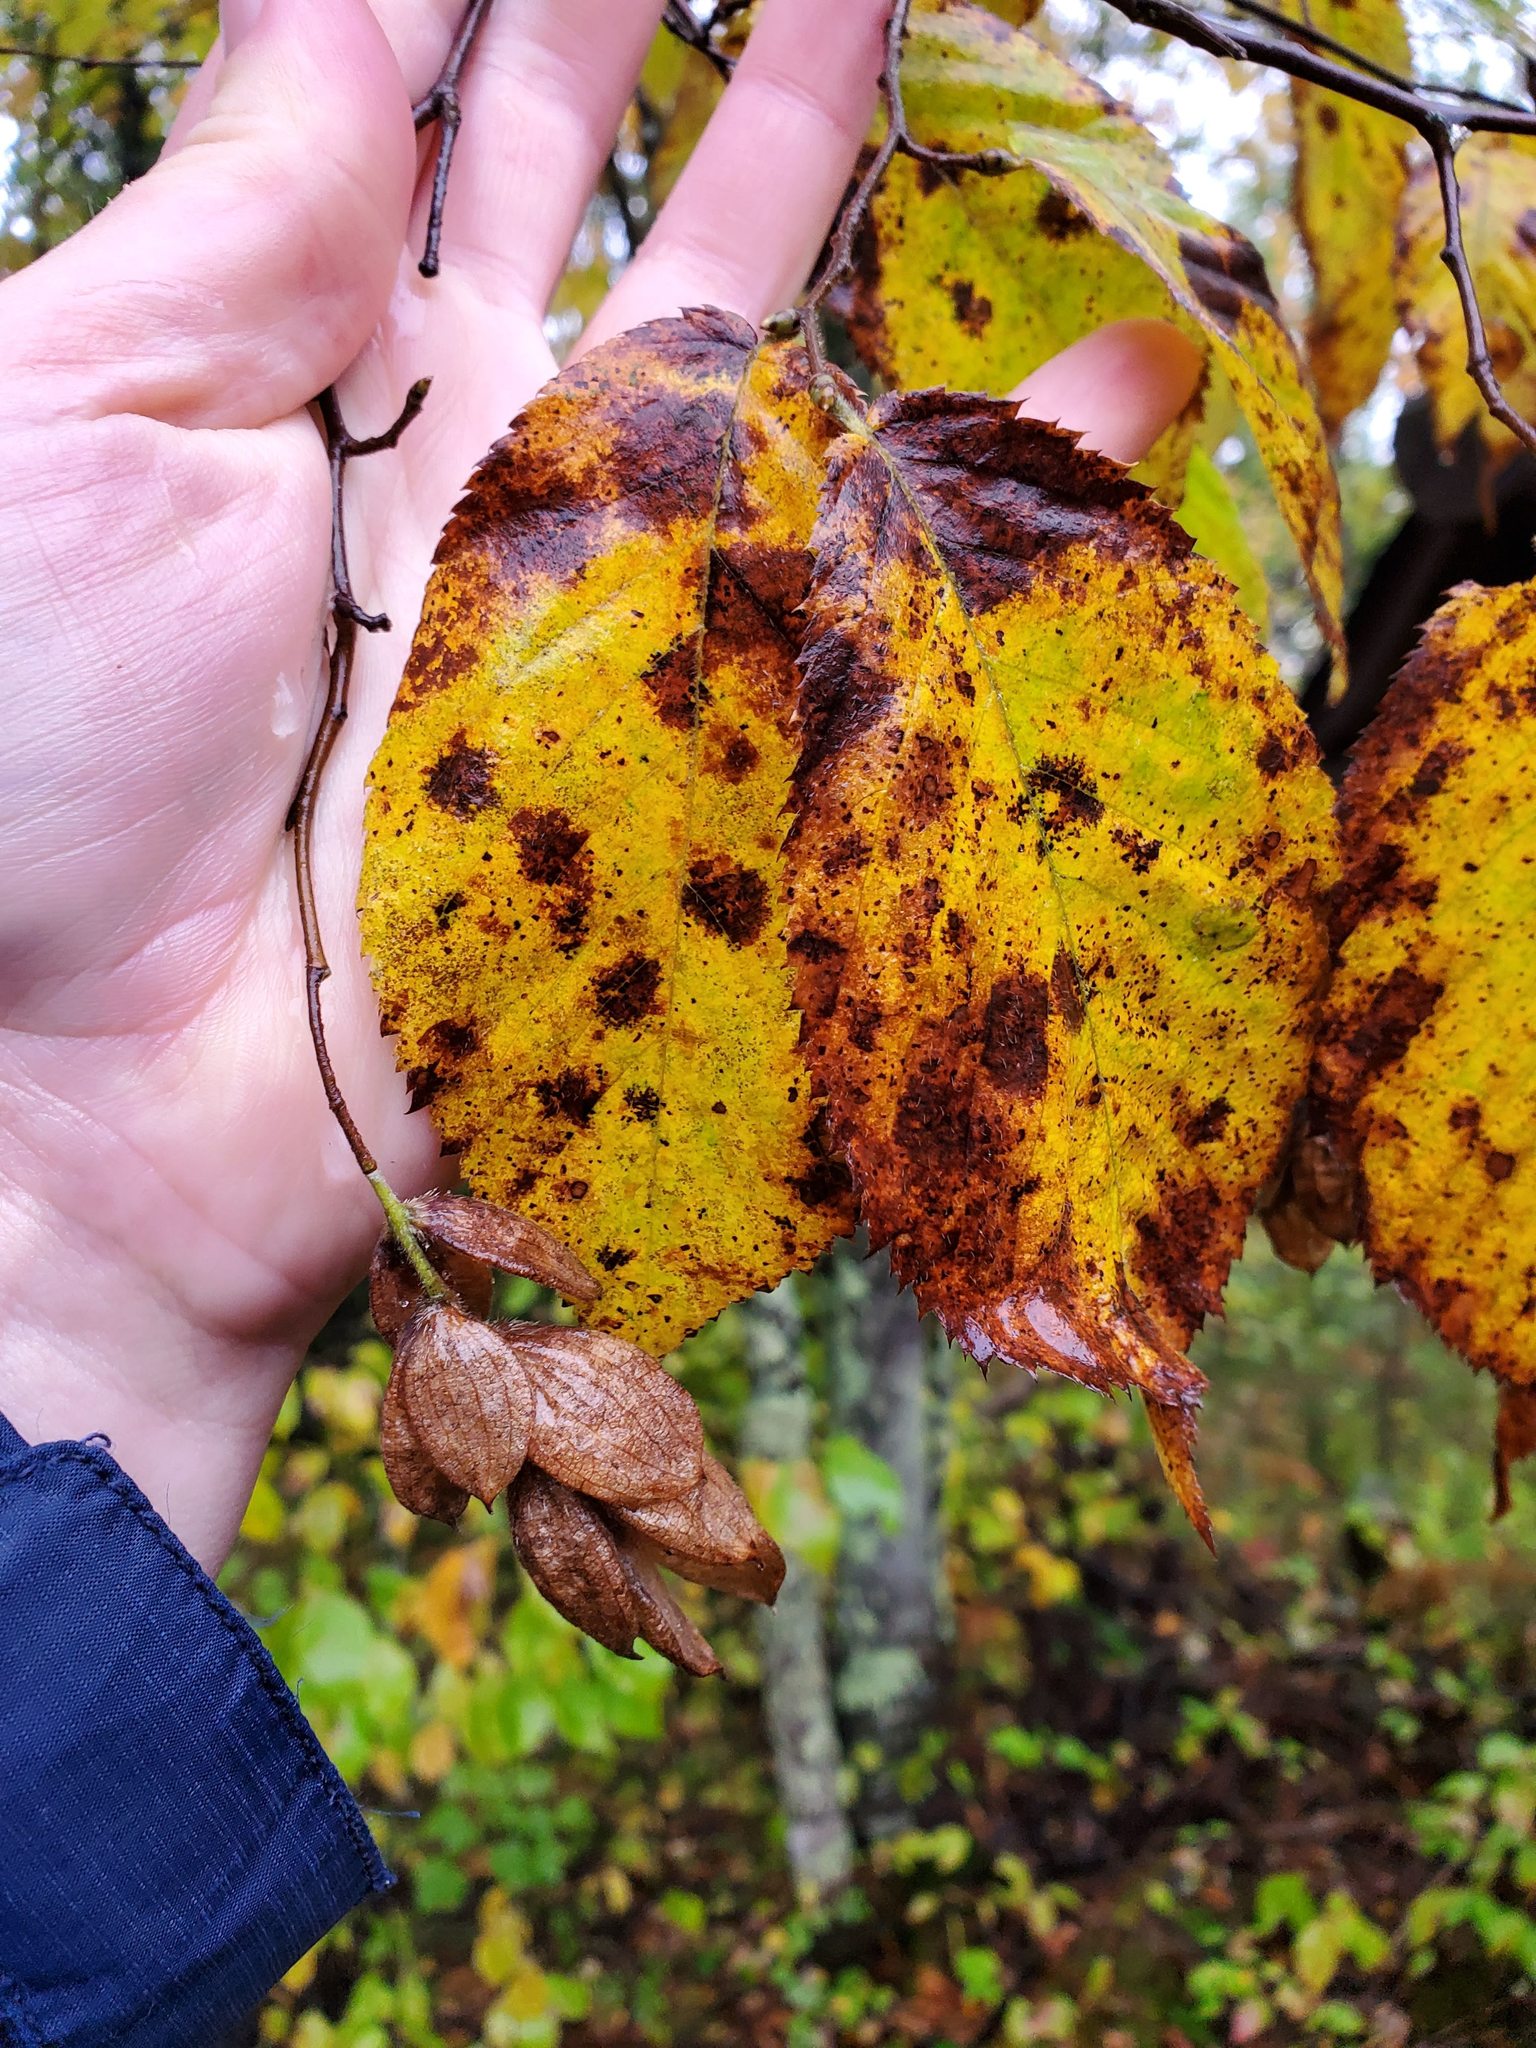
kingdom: Plantae
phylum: Tracheophyta
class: Magnoliopsida
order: Fagales
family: Betulaceae
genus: Ostrya
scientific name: Ostrya virginiana
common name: Ironwood
